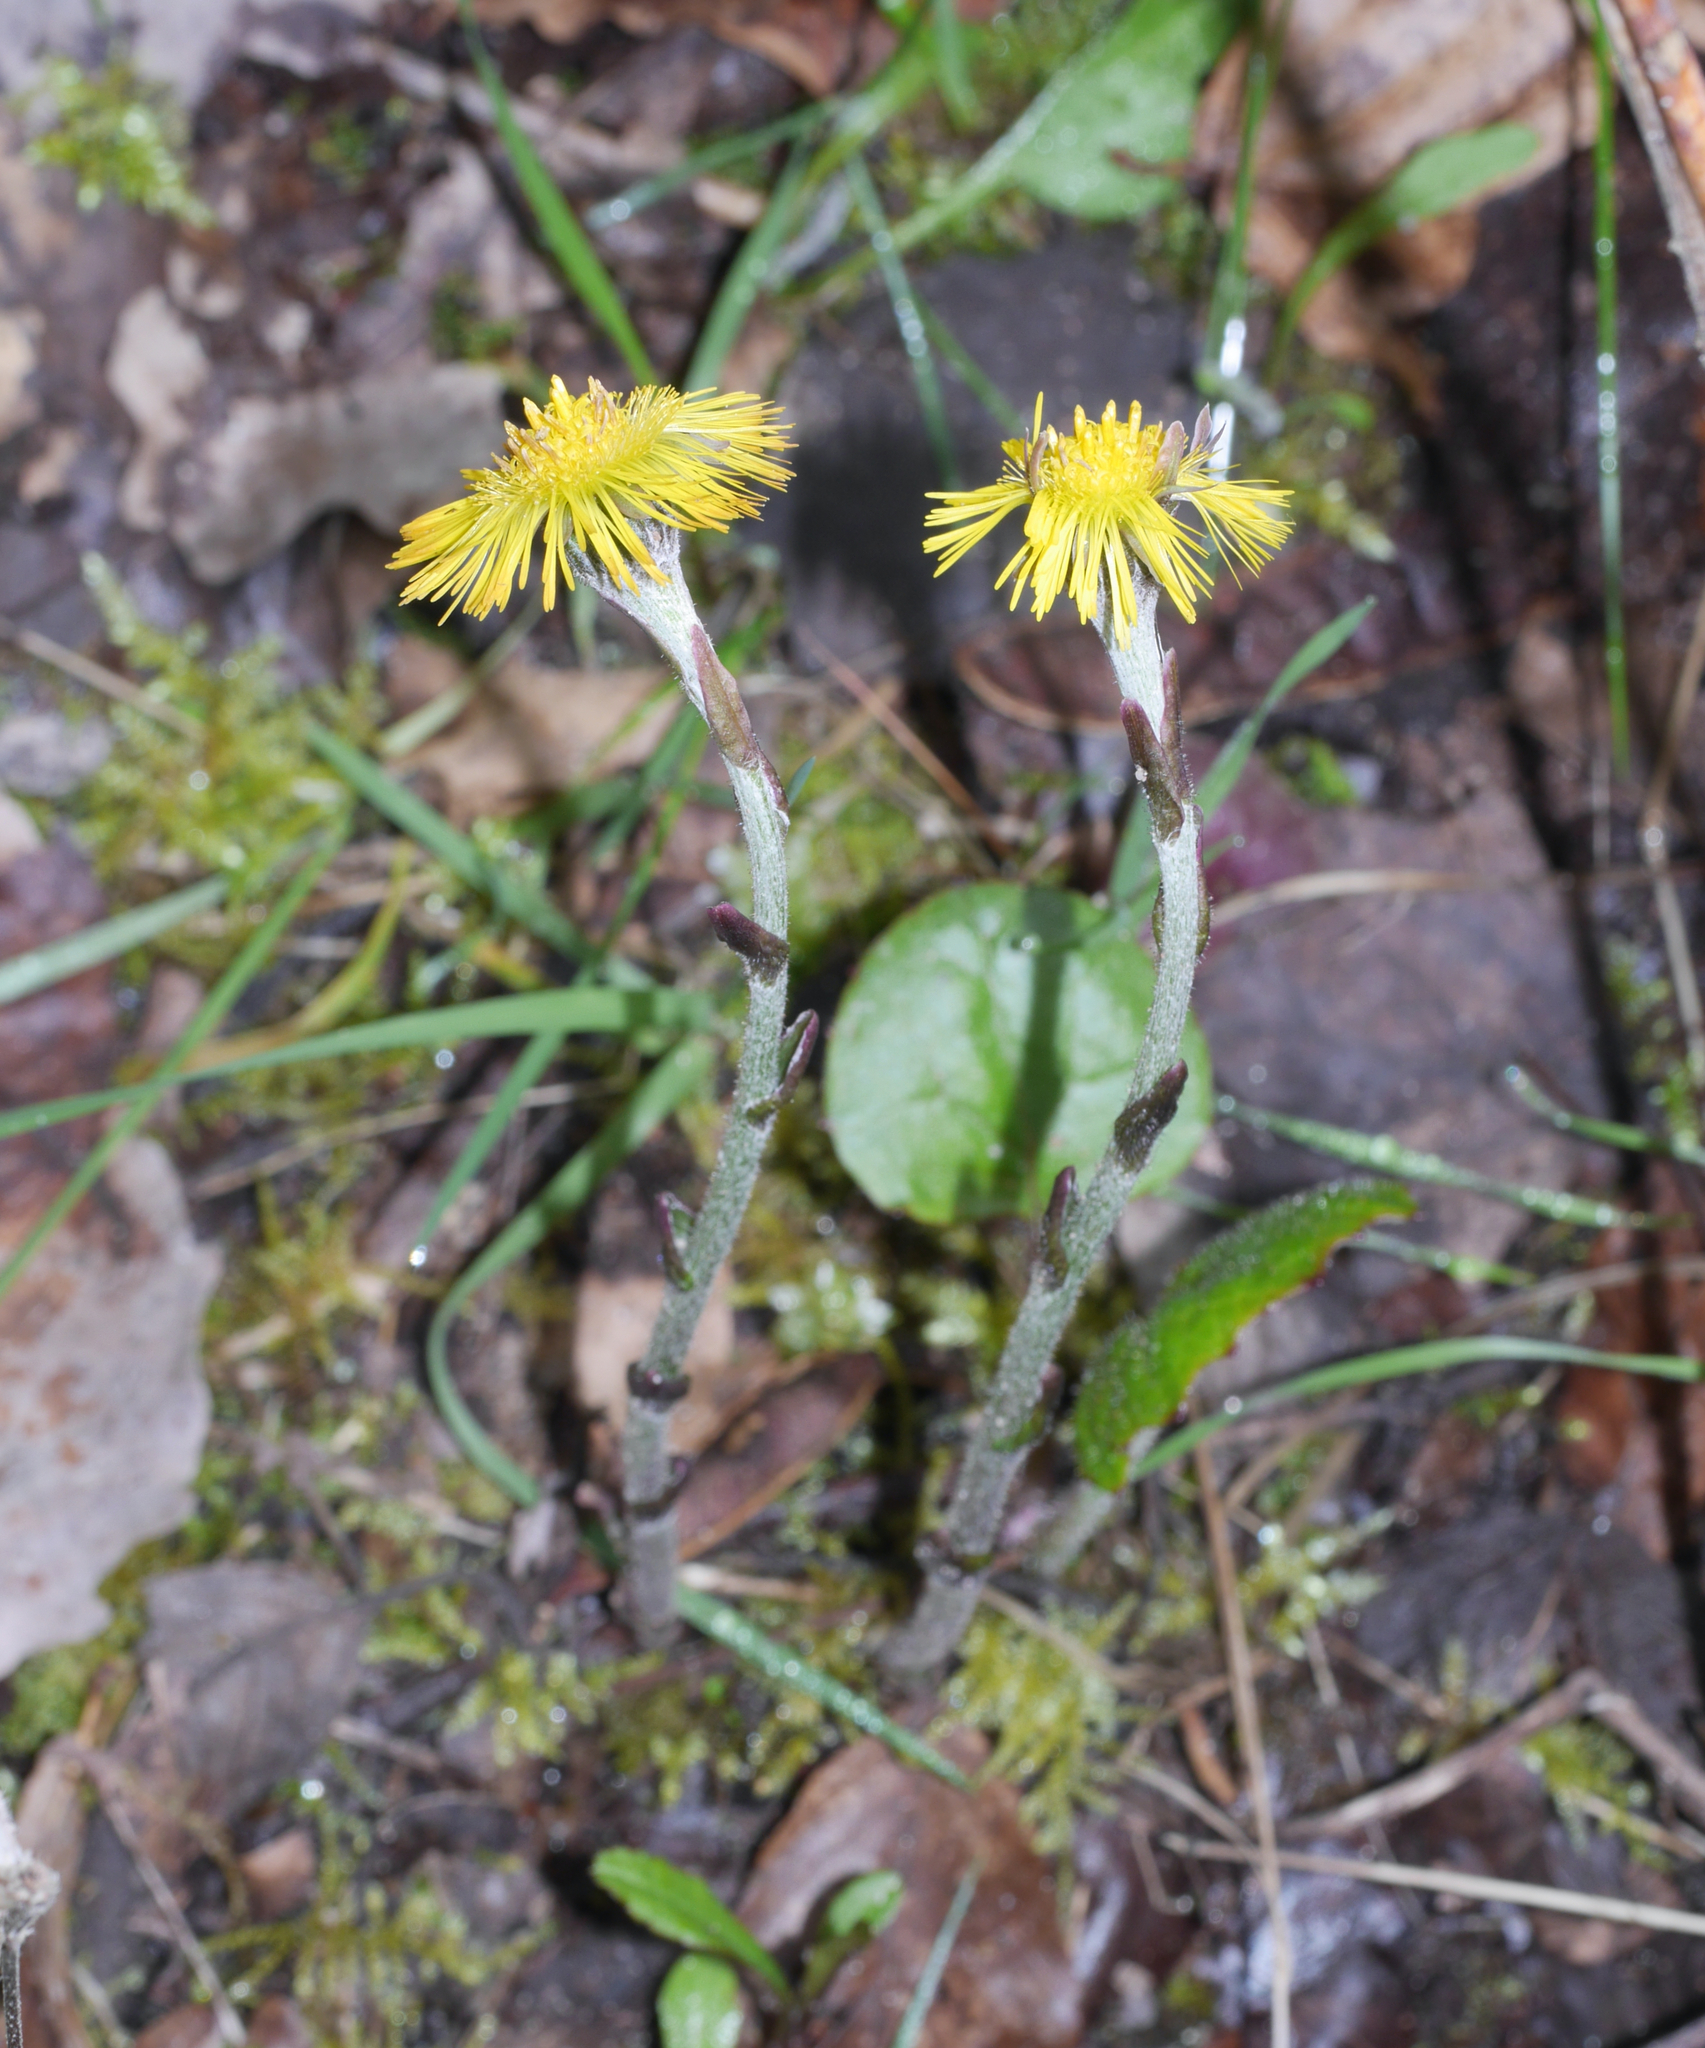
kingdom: Plantae
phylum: Tracheophyta
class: Magnoliopsida
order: Asterales
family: Asteraceae
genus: Tussilago
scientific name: Tussilago farfara
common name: Coltsfoot
